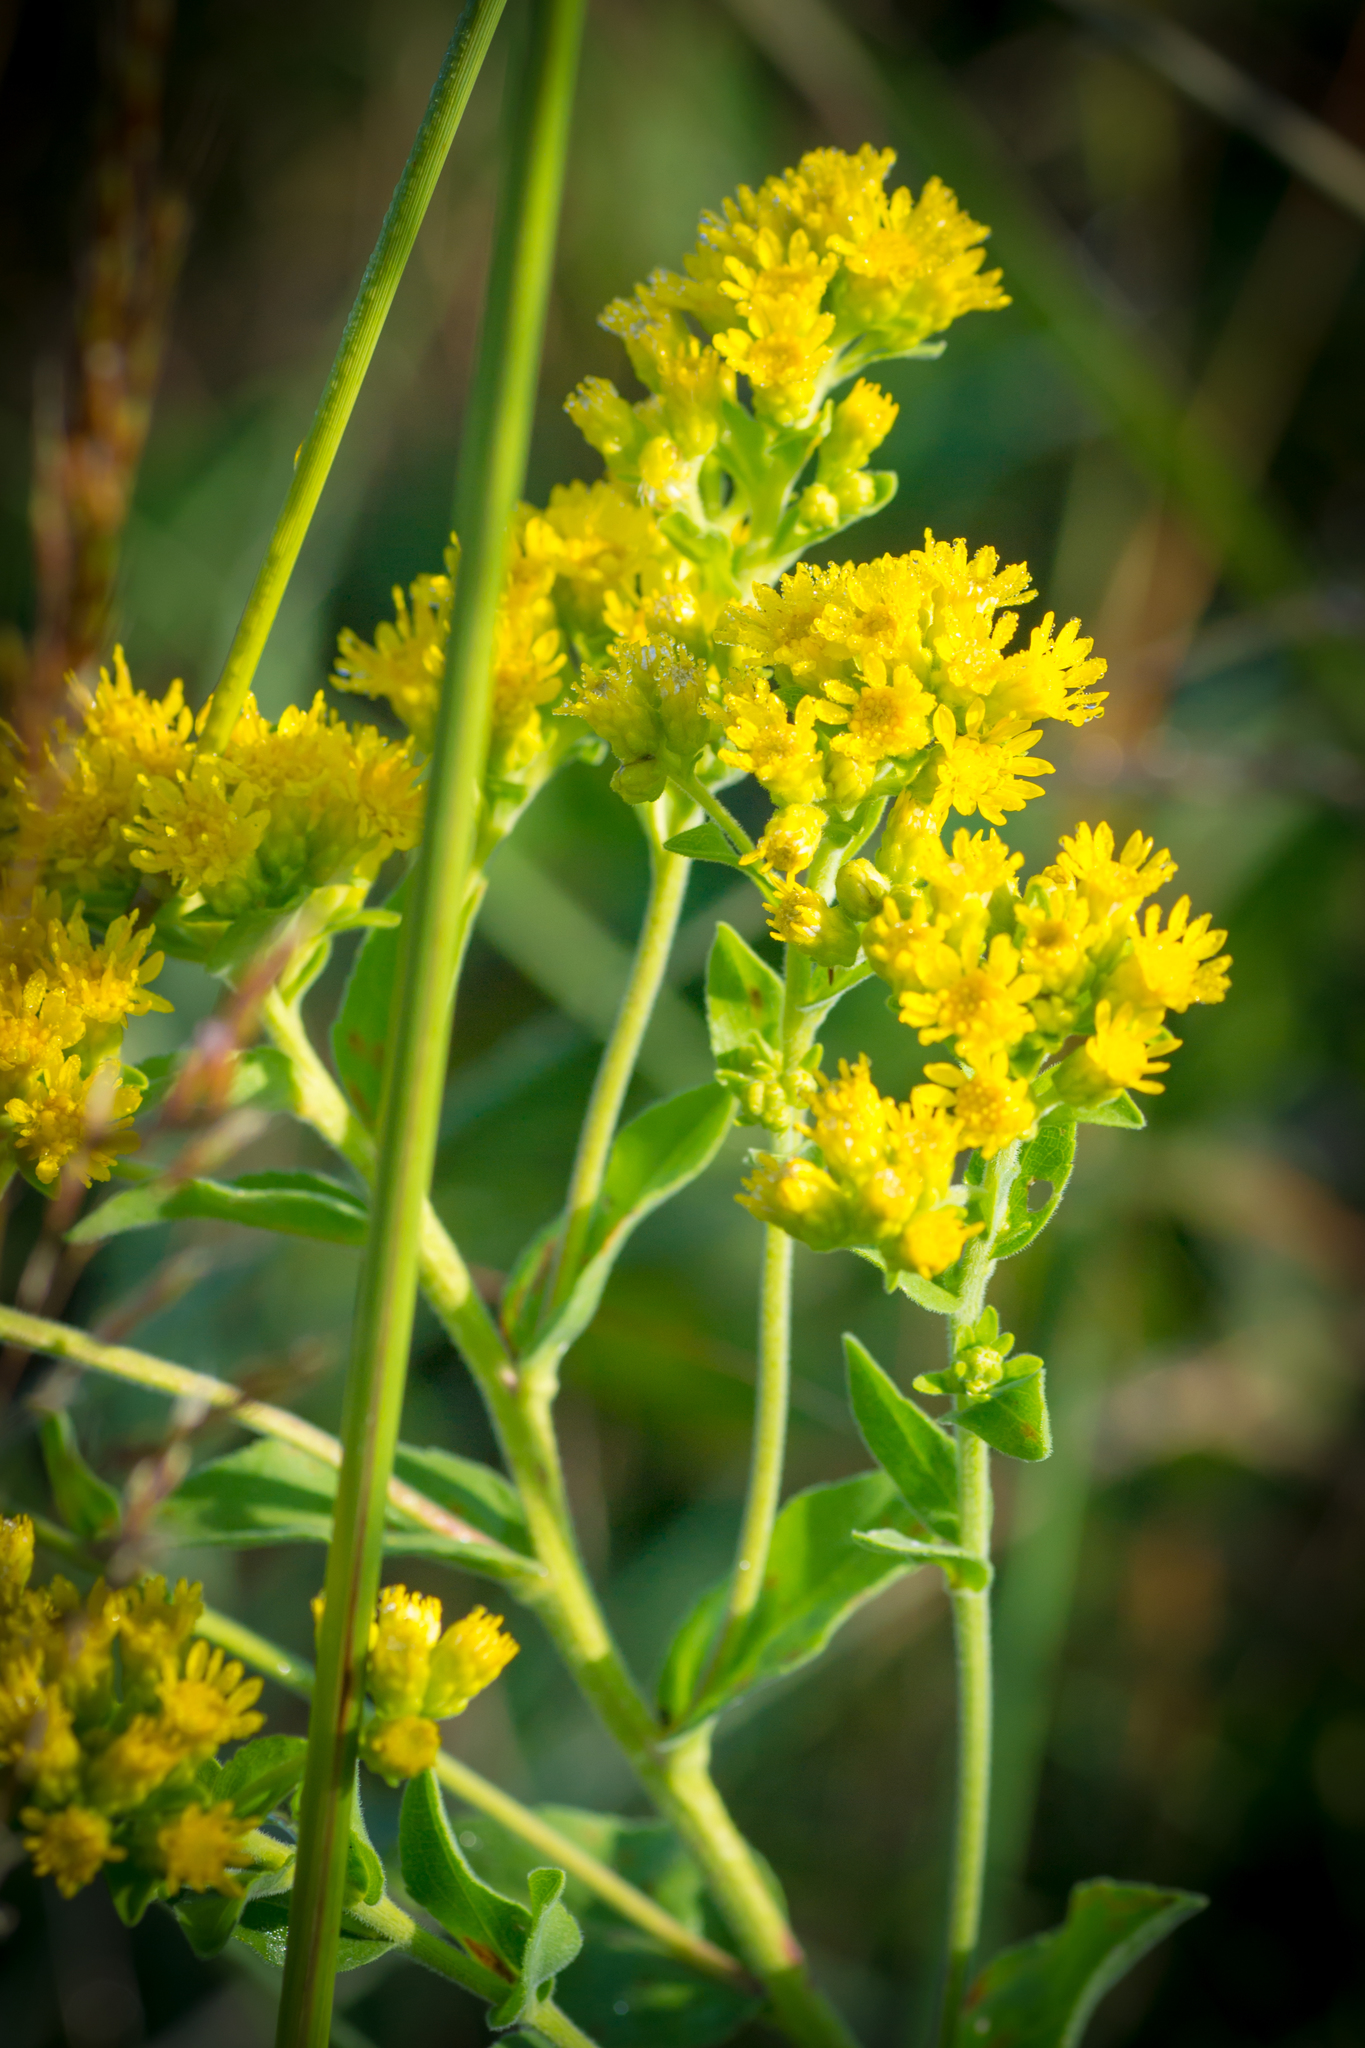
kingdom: Plantae
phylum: Tracheophyta
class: Magnoliopsida
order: Asterales
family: Asteraceae
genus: Solidago
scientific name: Solidago rigida
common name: Rigid goldenrod
